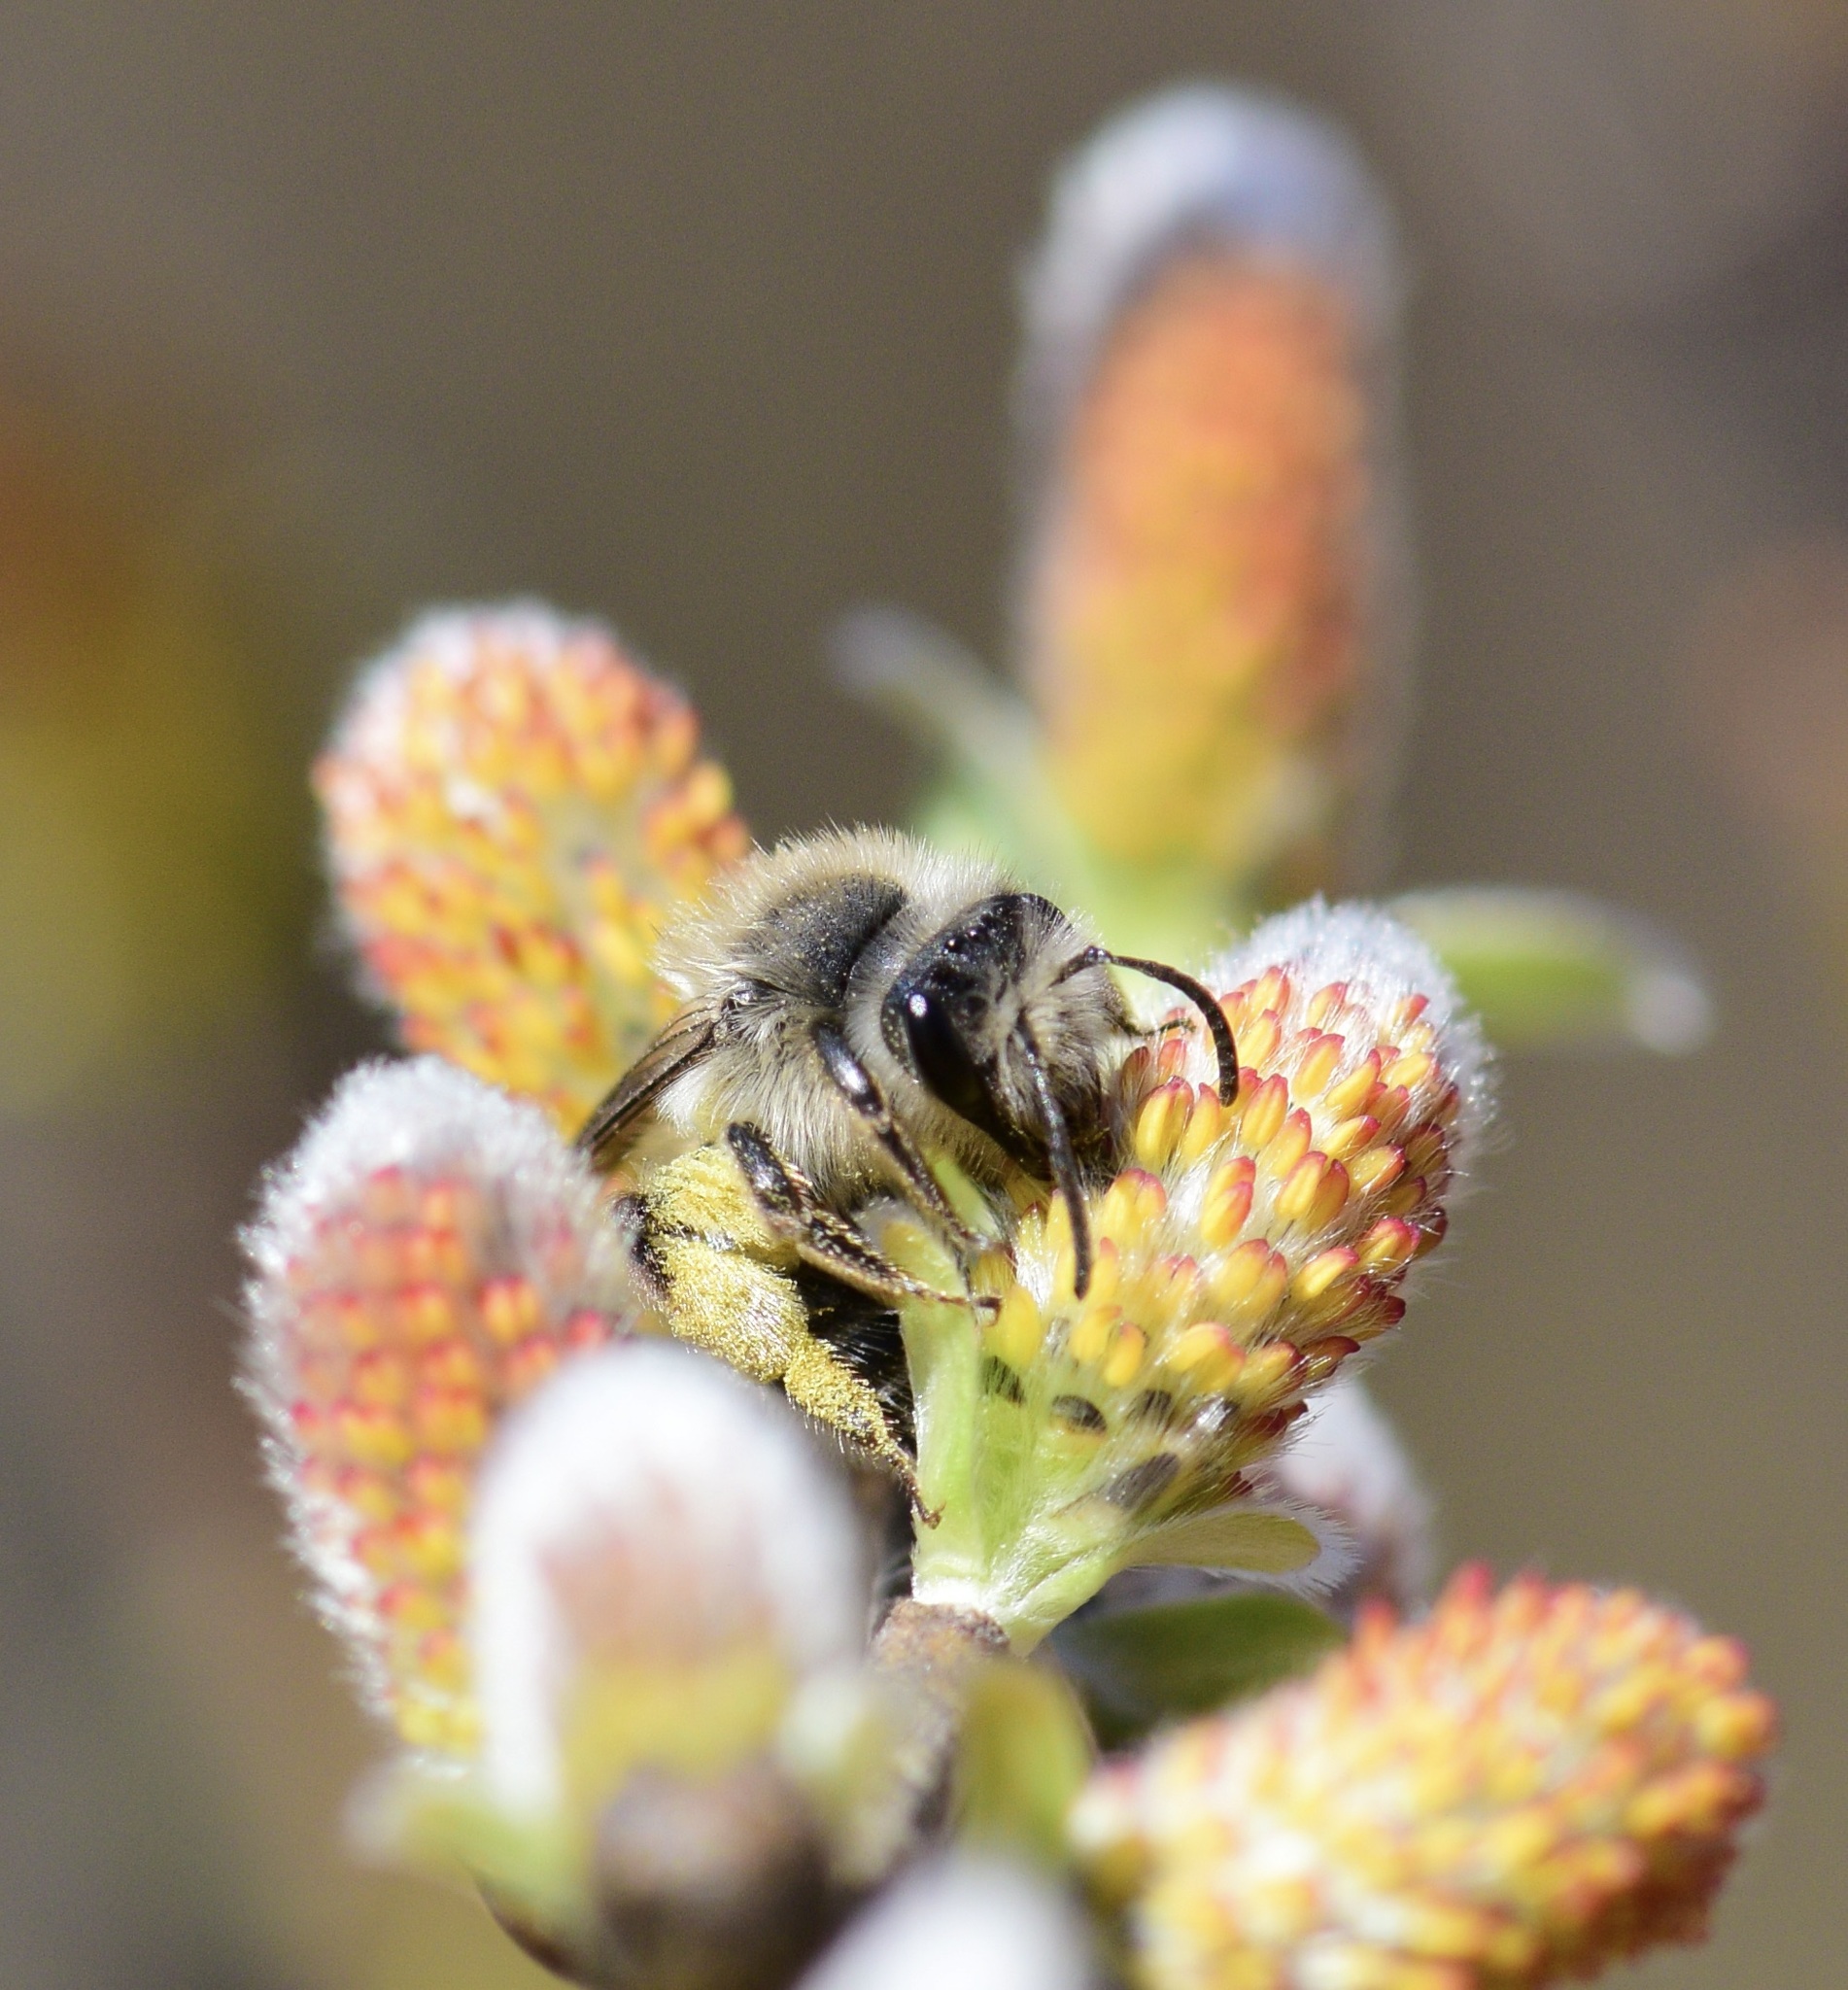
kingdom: Animalia
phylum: Arthropoda
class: Insecta
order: Hymenoptera
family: Andrenidae
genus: Andrena
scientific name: Andrena frigida
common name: Frigid mining bee
